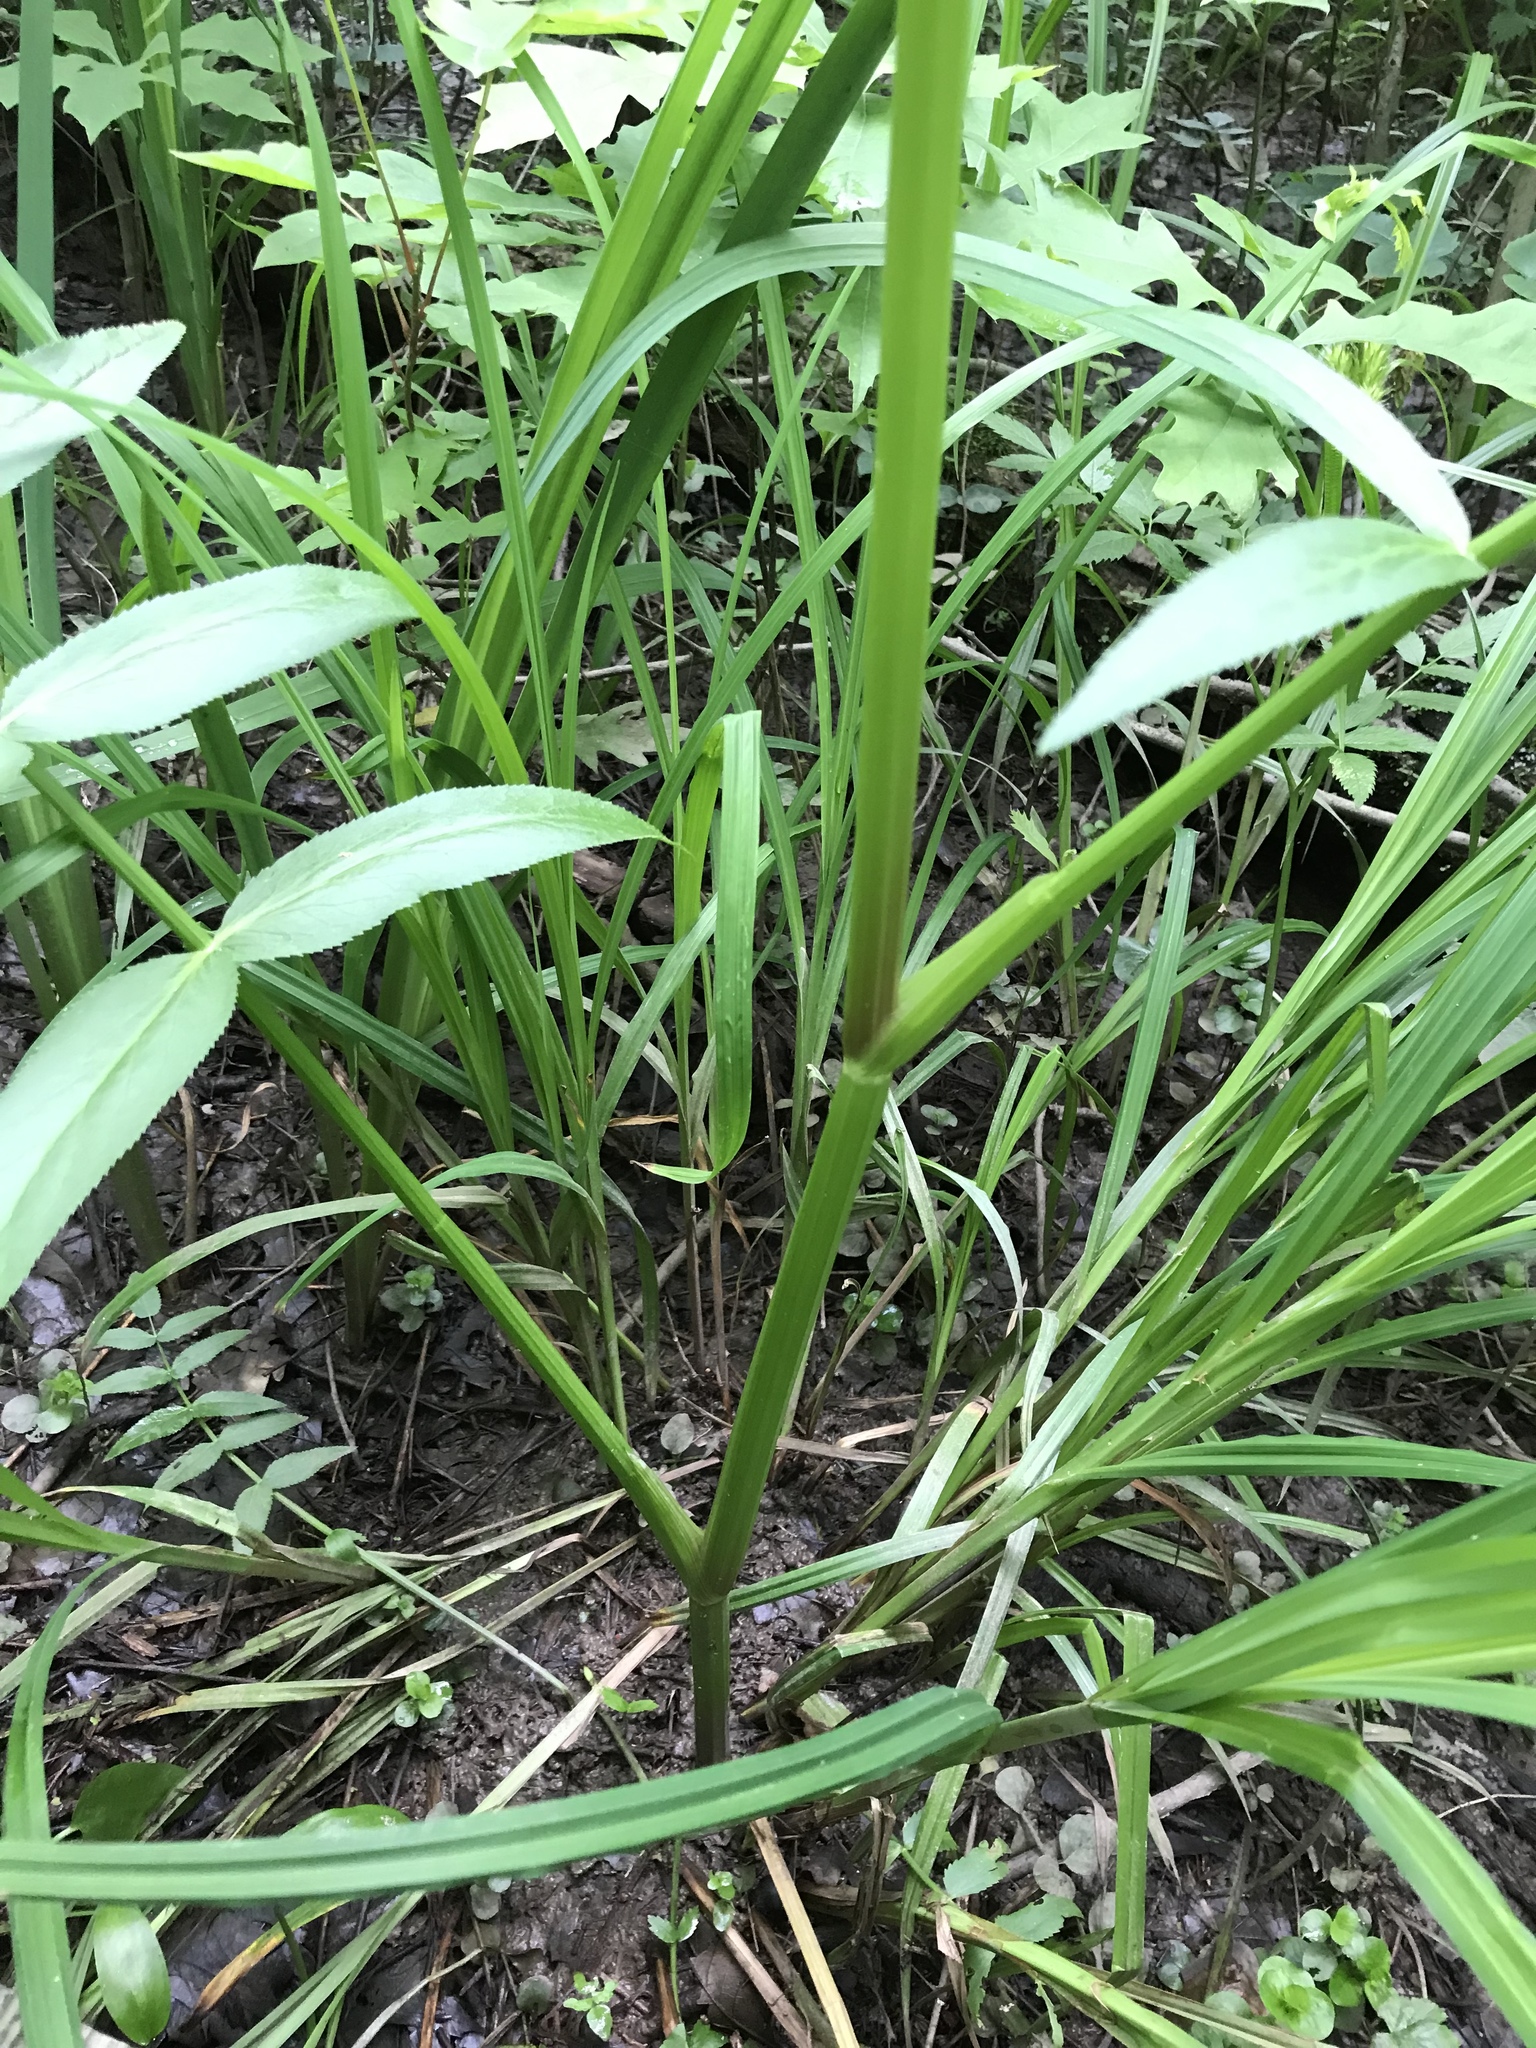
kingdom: Plantae
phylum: Tracheophyta
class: Magnoliopsida
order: Apiales
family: Apiaceae
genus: Sium
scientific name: Sium suave
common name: Hemlock water-parsnip
